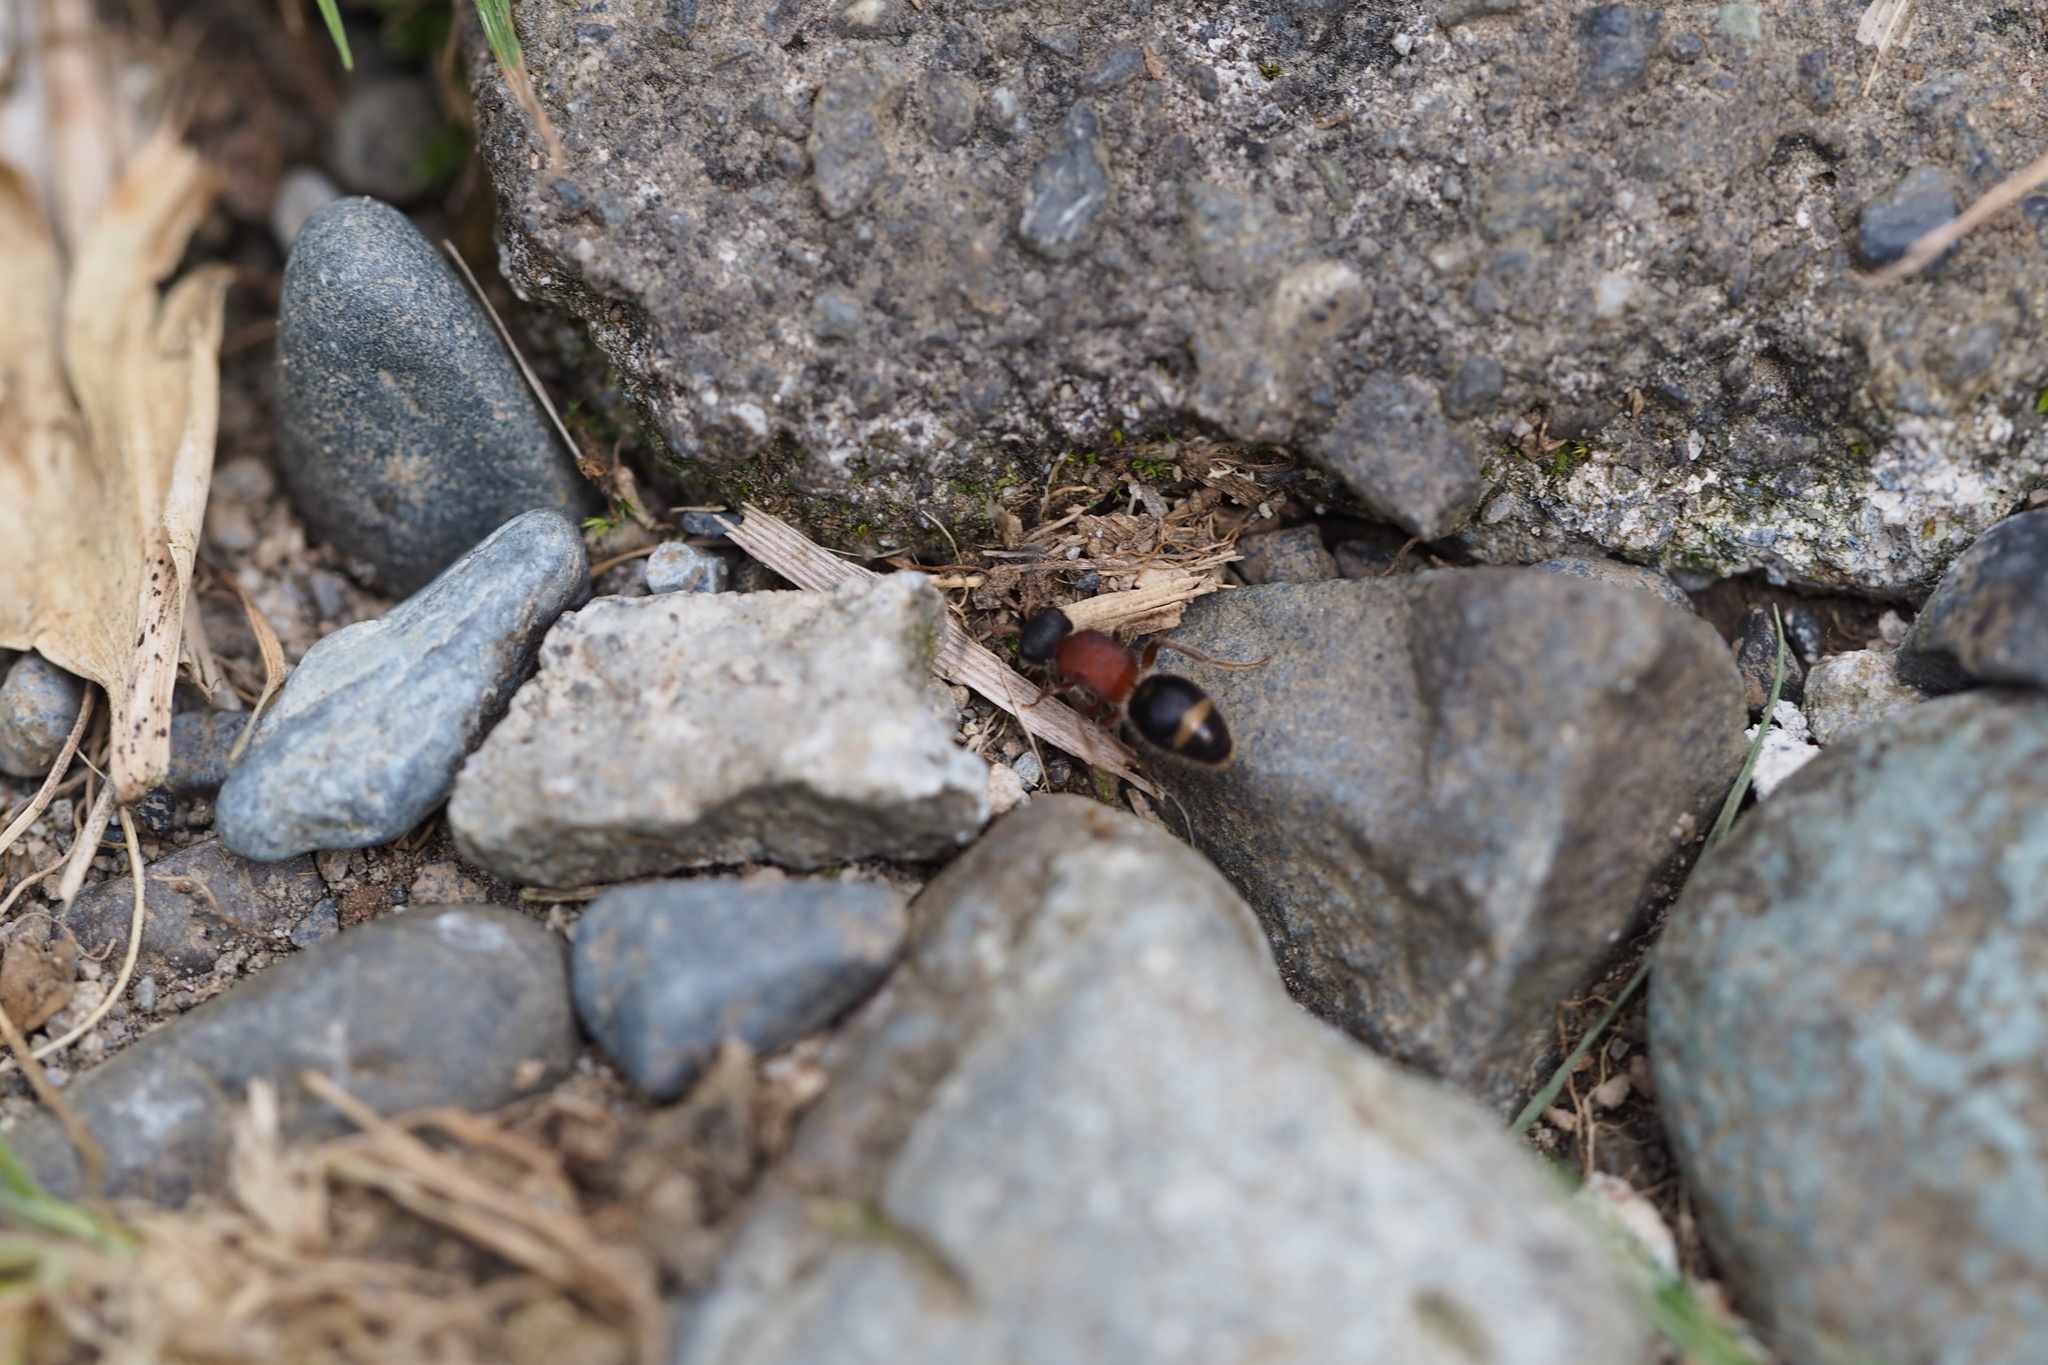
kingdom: Animalia
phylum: Arthropoda
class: Insecta
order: Hymenoptera
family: Mutillidae
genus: Bischoffitilla
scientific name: Bischoffitilla
